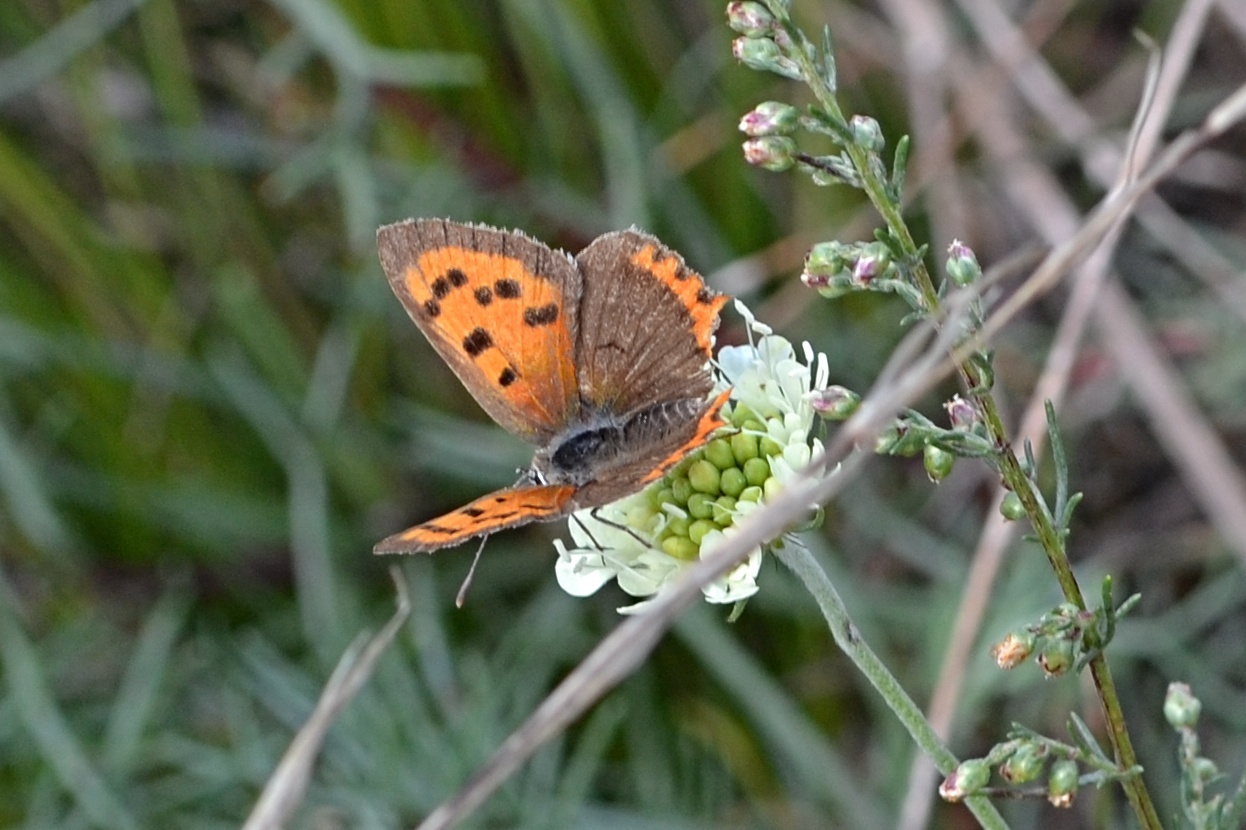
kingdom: Animalia
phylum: Arthropoda
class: Insecta
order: Lepidoptera
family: Lycaenidae
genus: Lycaena
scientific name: Lycaena phlaeas
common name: Small copper
